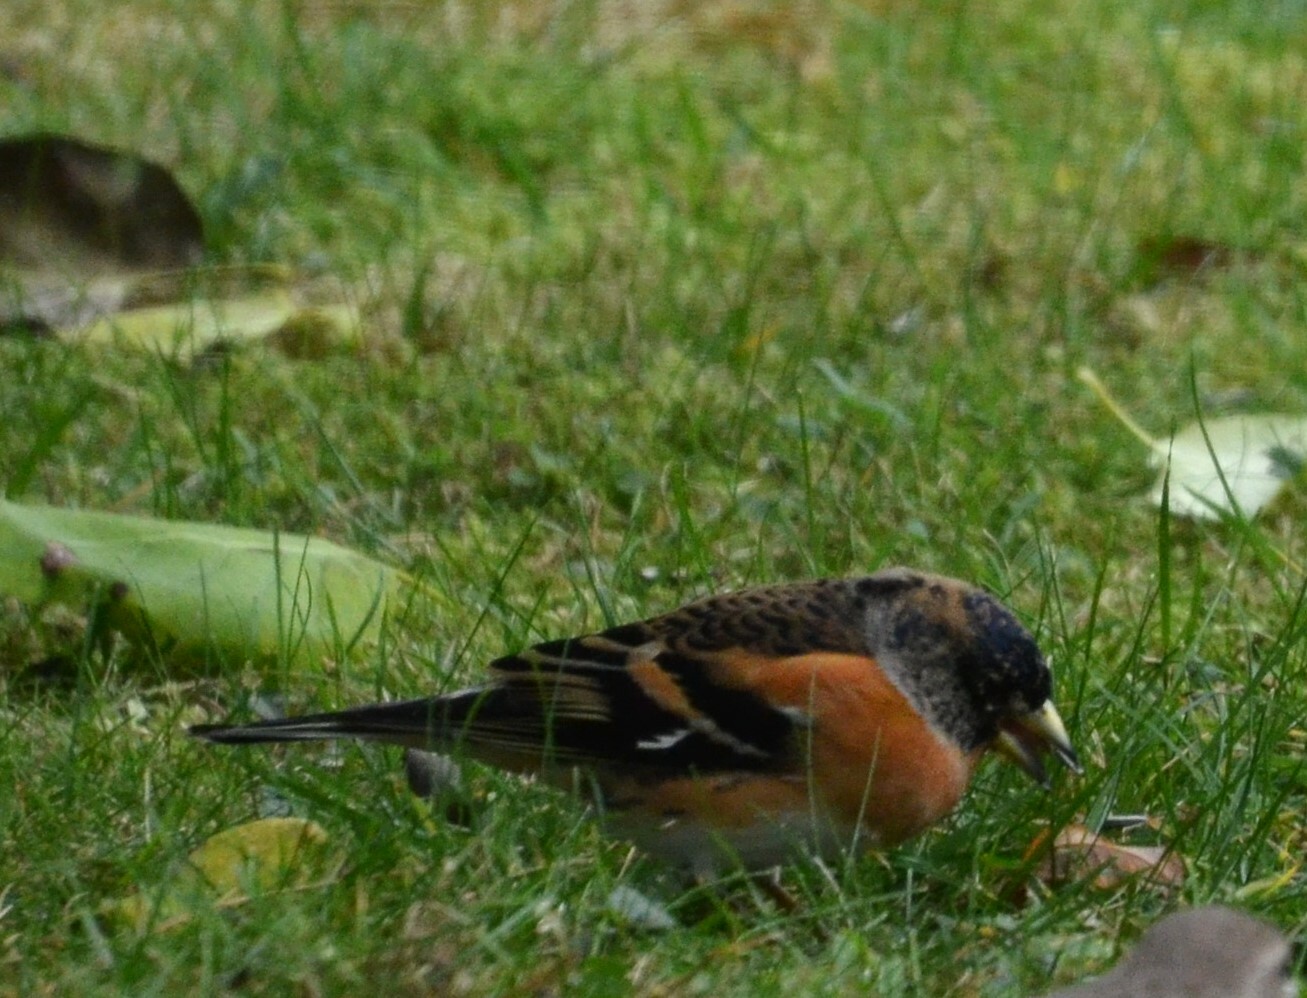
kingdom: Animalia
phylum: Chordata
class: Aves
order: Passeriformes
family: Fringillidae
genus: Fringilla
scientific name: Fringilla montifringilla
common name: Brambling
